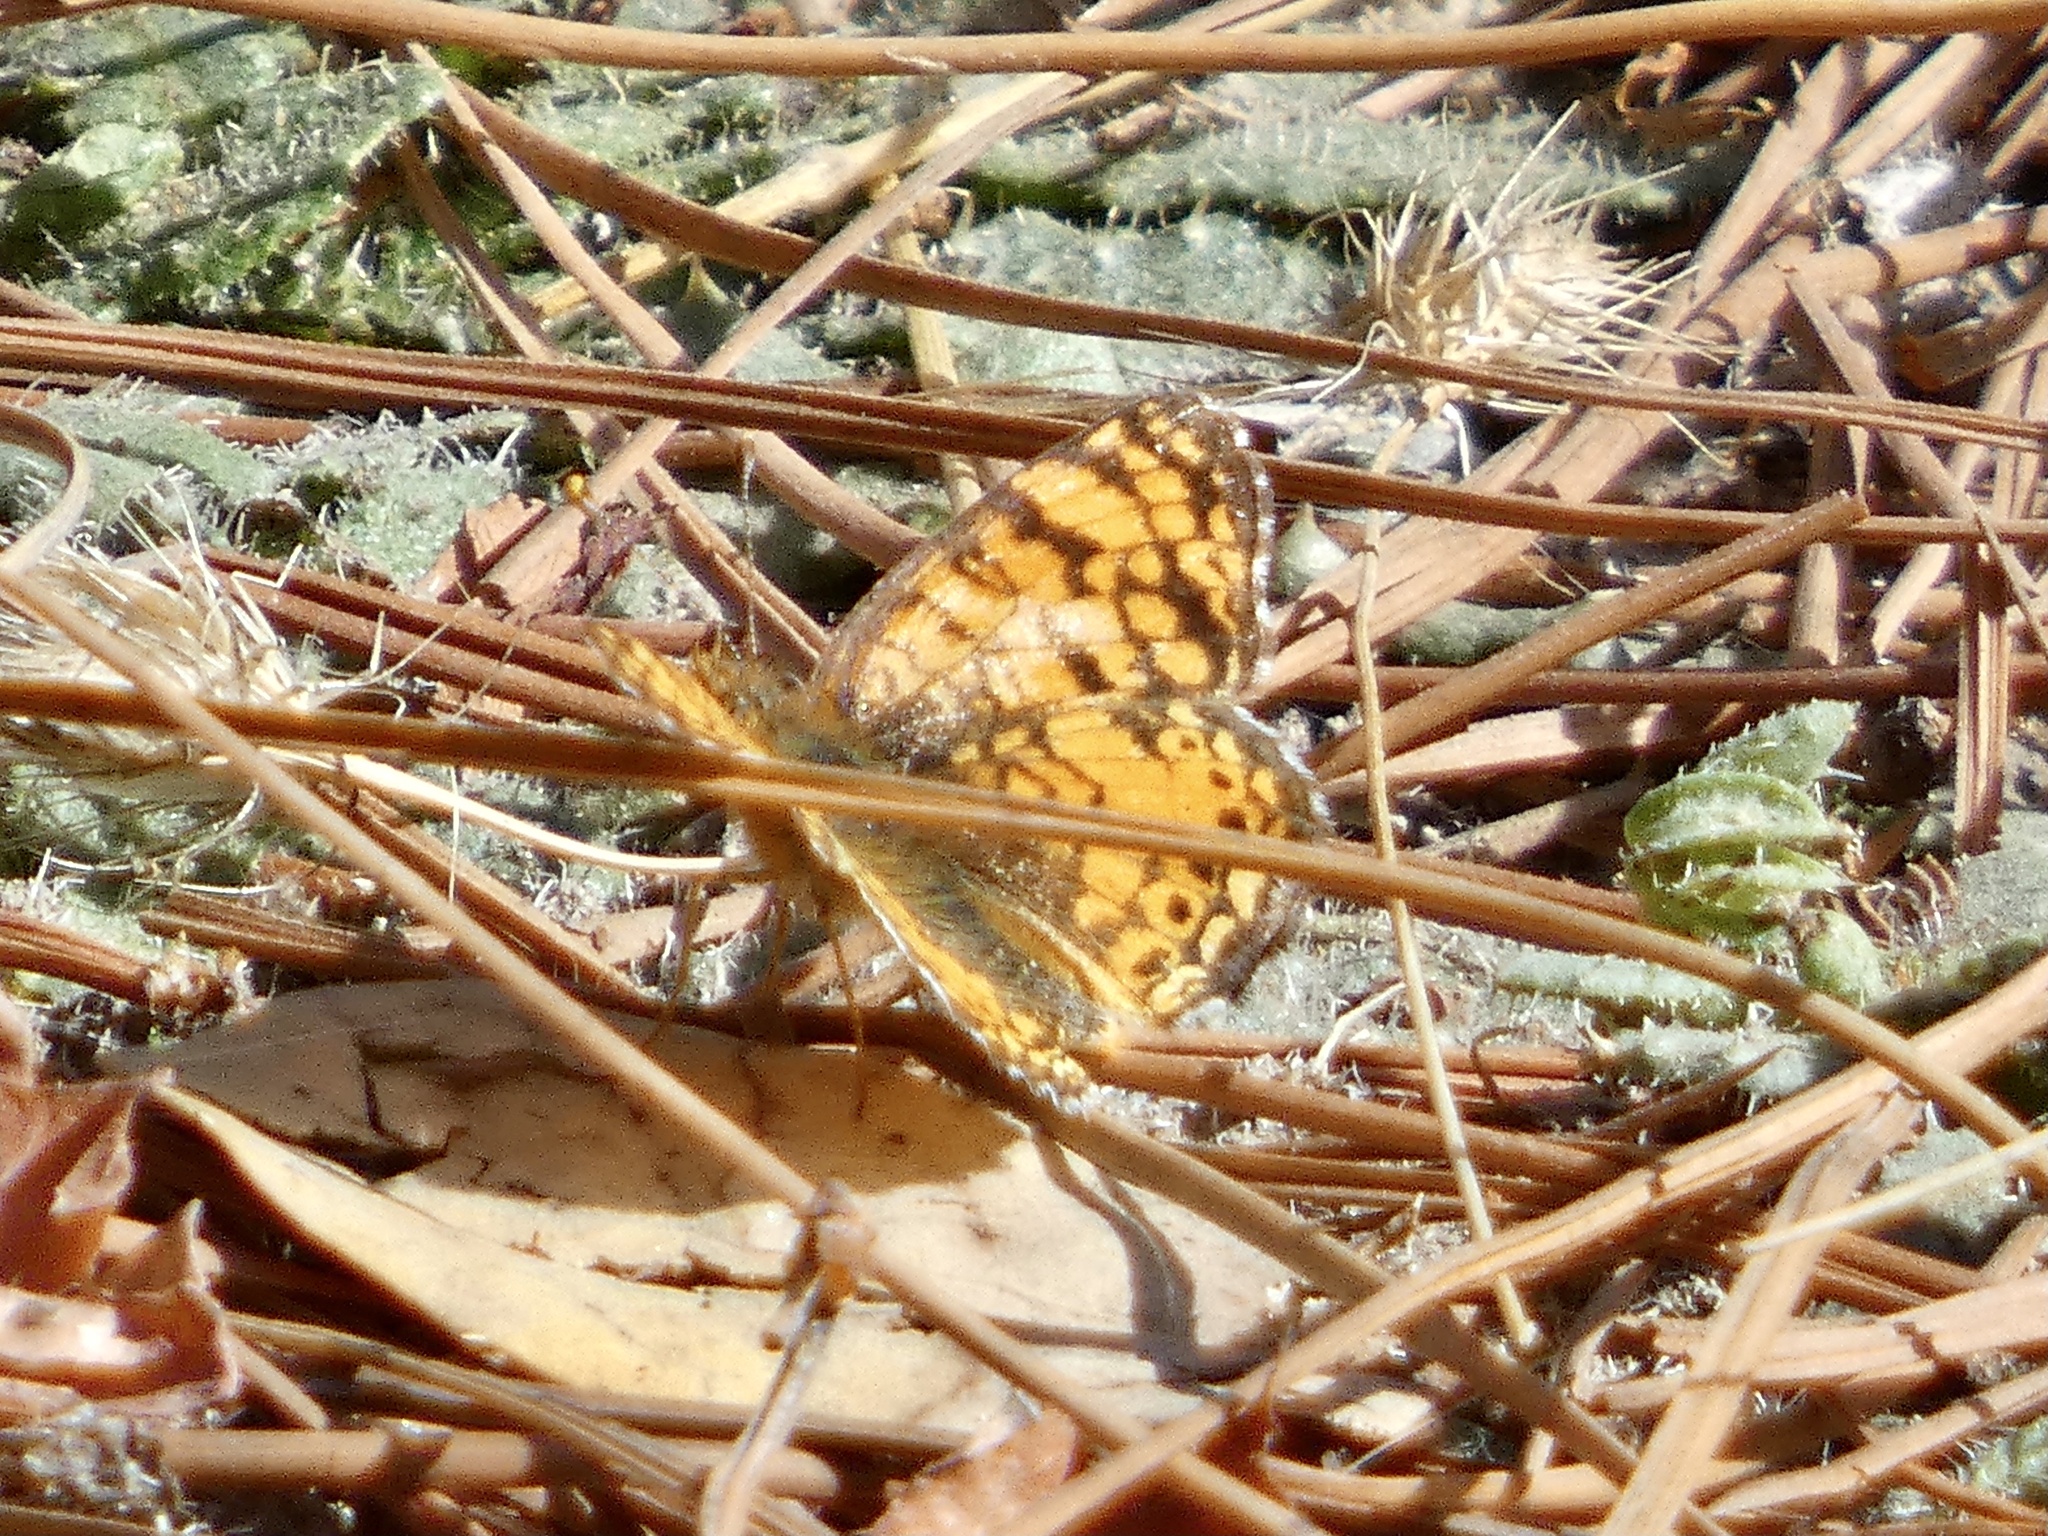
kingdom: Animalia
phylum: Arthropoda
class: Insecta
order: Lepidoptera
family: Nymphalidae
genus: Eresia
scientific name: Eresia aveyrona
